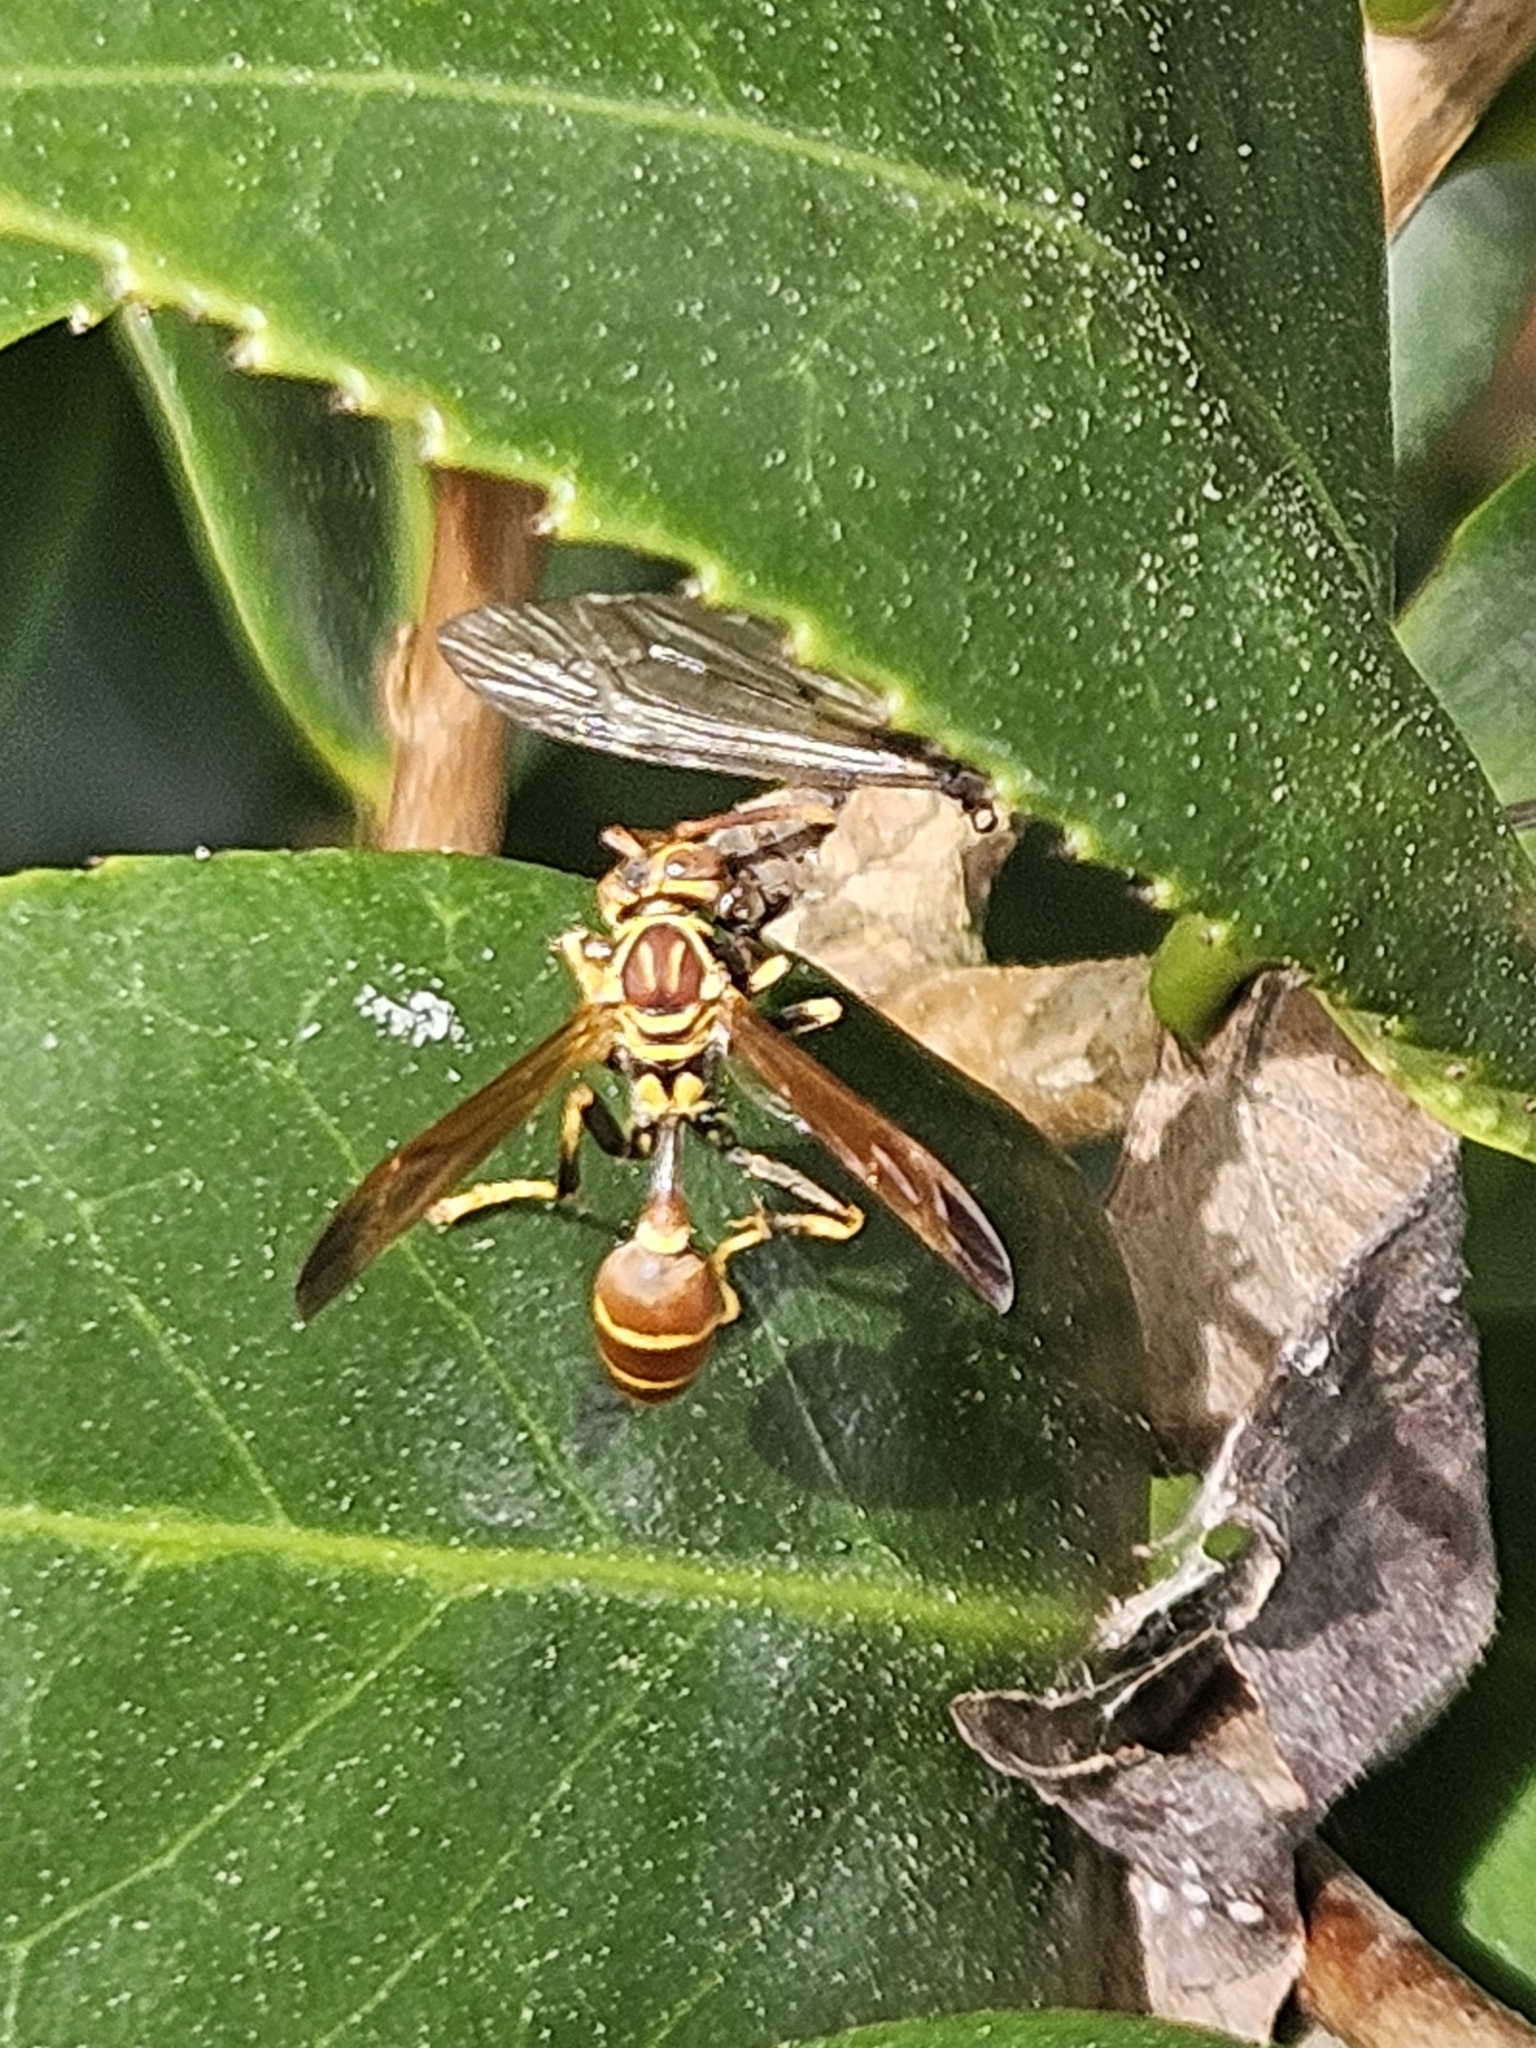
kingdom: Animalia
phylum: Arthropoda
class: Insecta
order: Hymenoptera
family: Vespidae
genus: Mischocyttarus
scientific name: Mischocyttarus mexicanus
